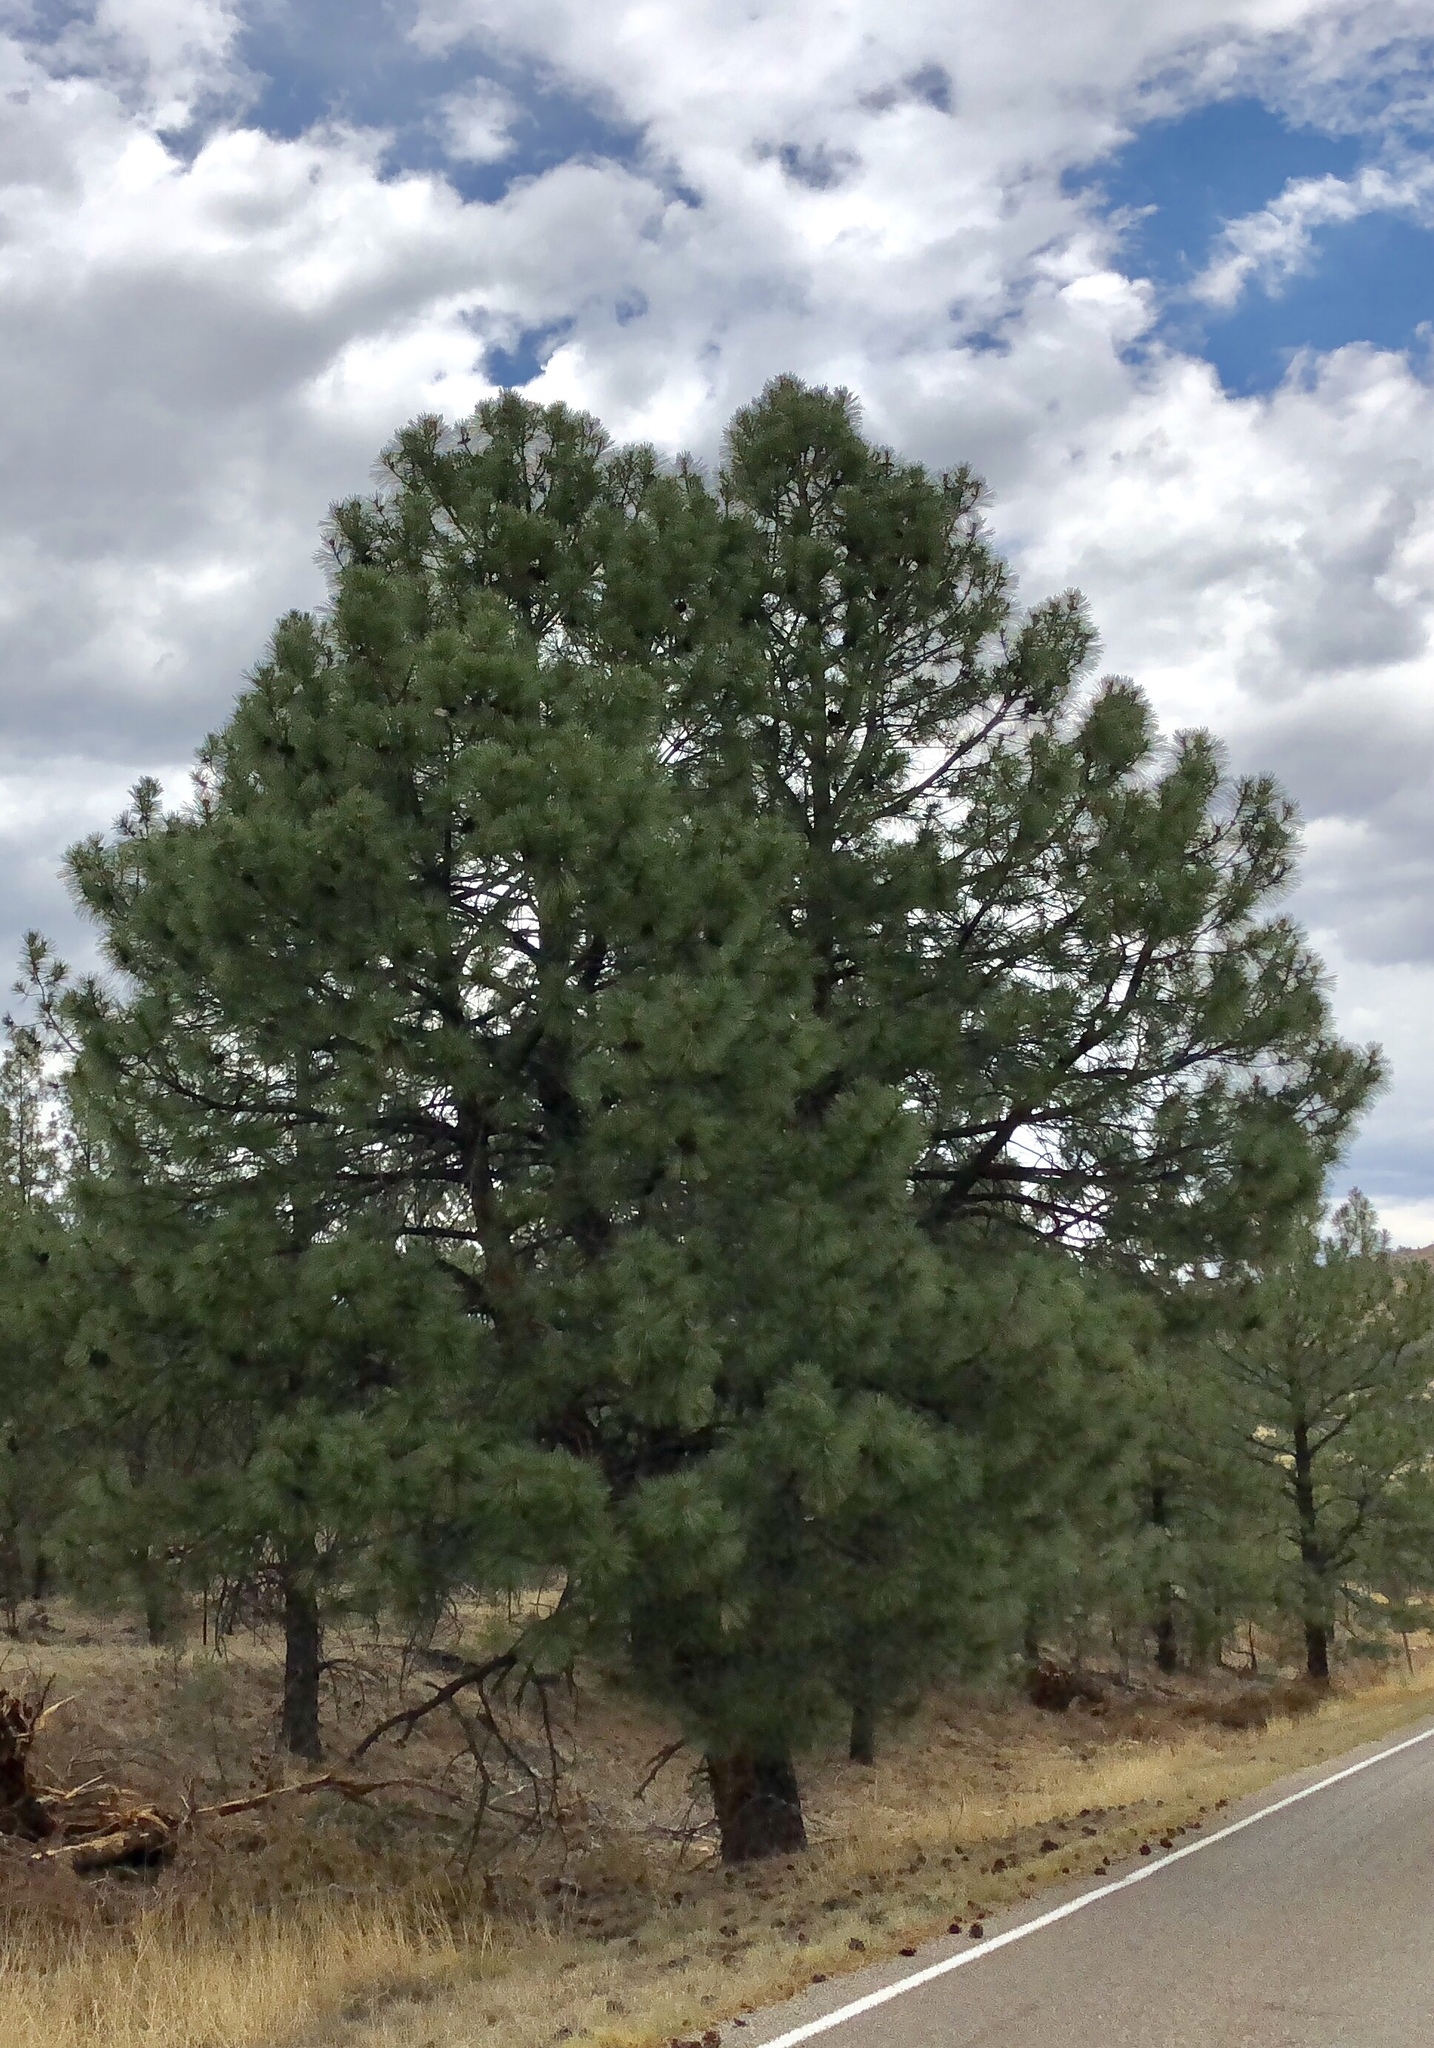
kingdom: Plantae
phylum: Tracheophyta
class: Pinopsida
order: Pinales
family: Pinaceae
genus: Pinus
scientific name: Pinus ponderosa
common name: Western yellow-pine
